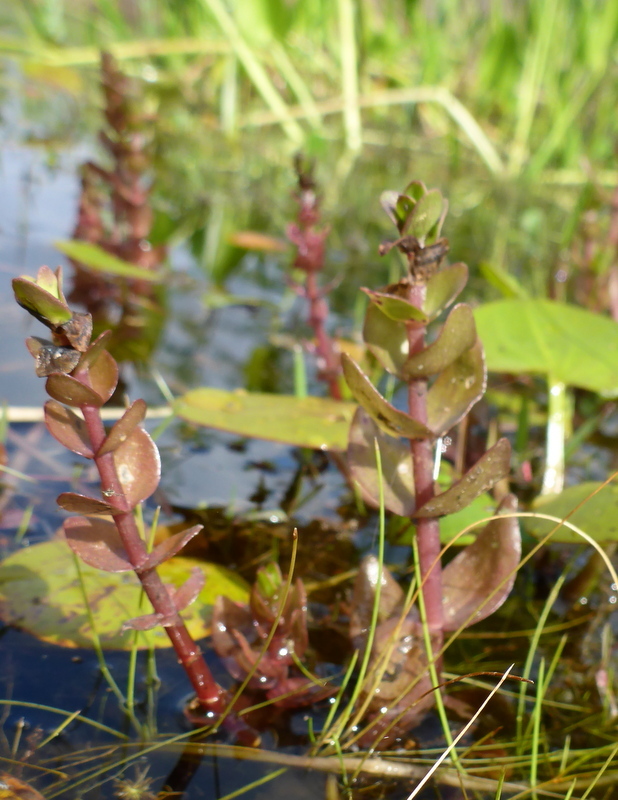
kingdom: Plantae
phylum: Tracheophyta
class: Magnoliopsida
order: Lamiales
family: Plantaginaceae
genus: Bacopa
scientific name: Bacopa caroliniana
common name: Lemon bacopa
